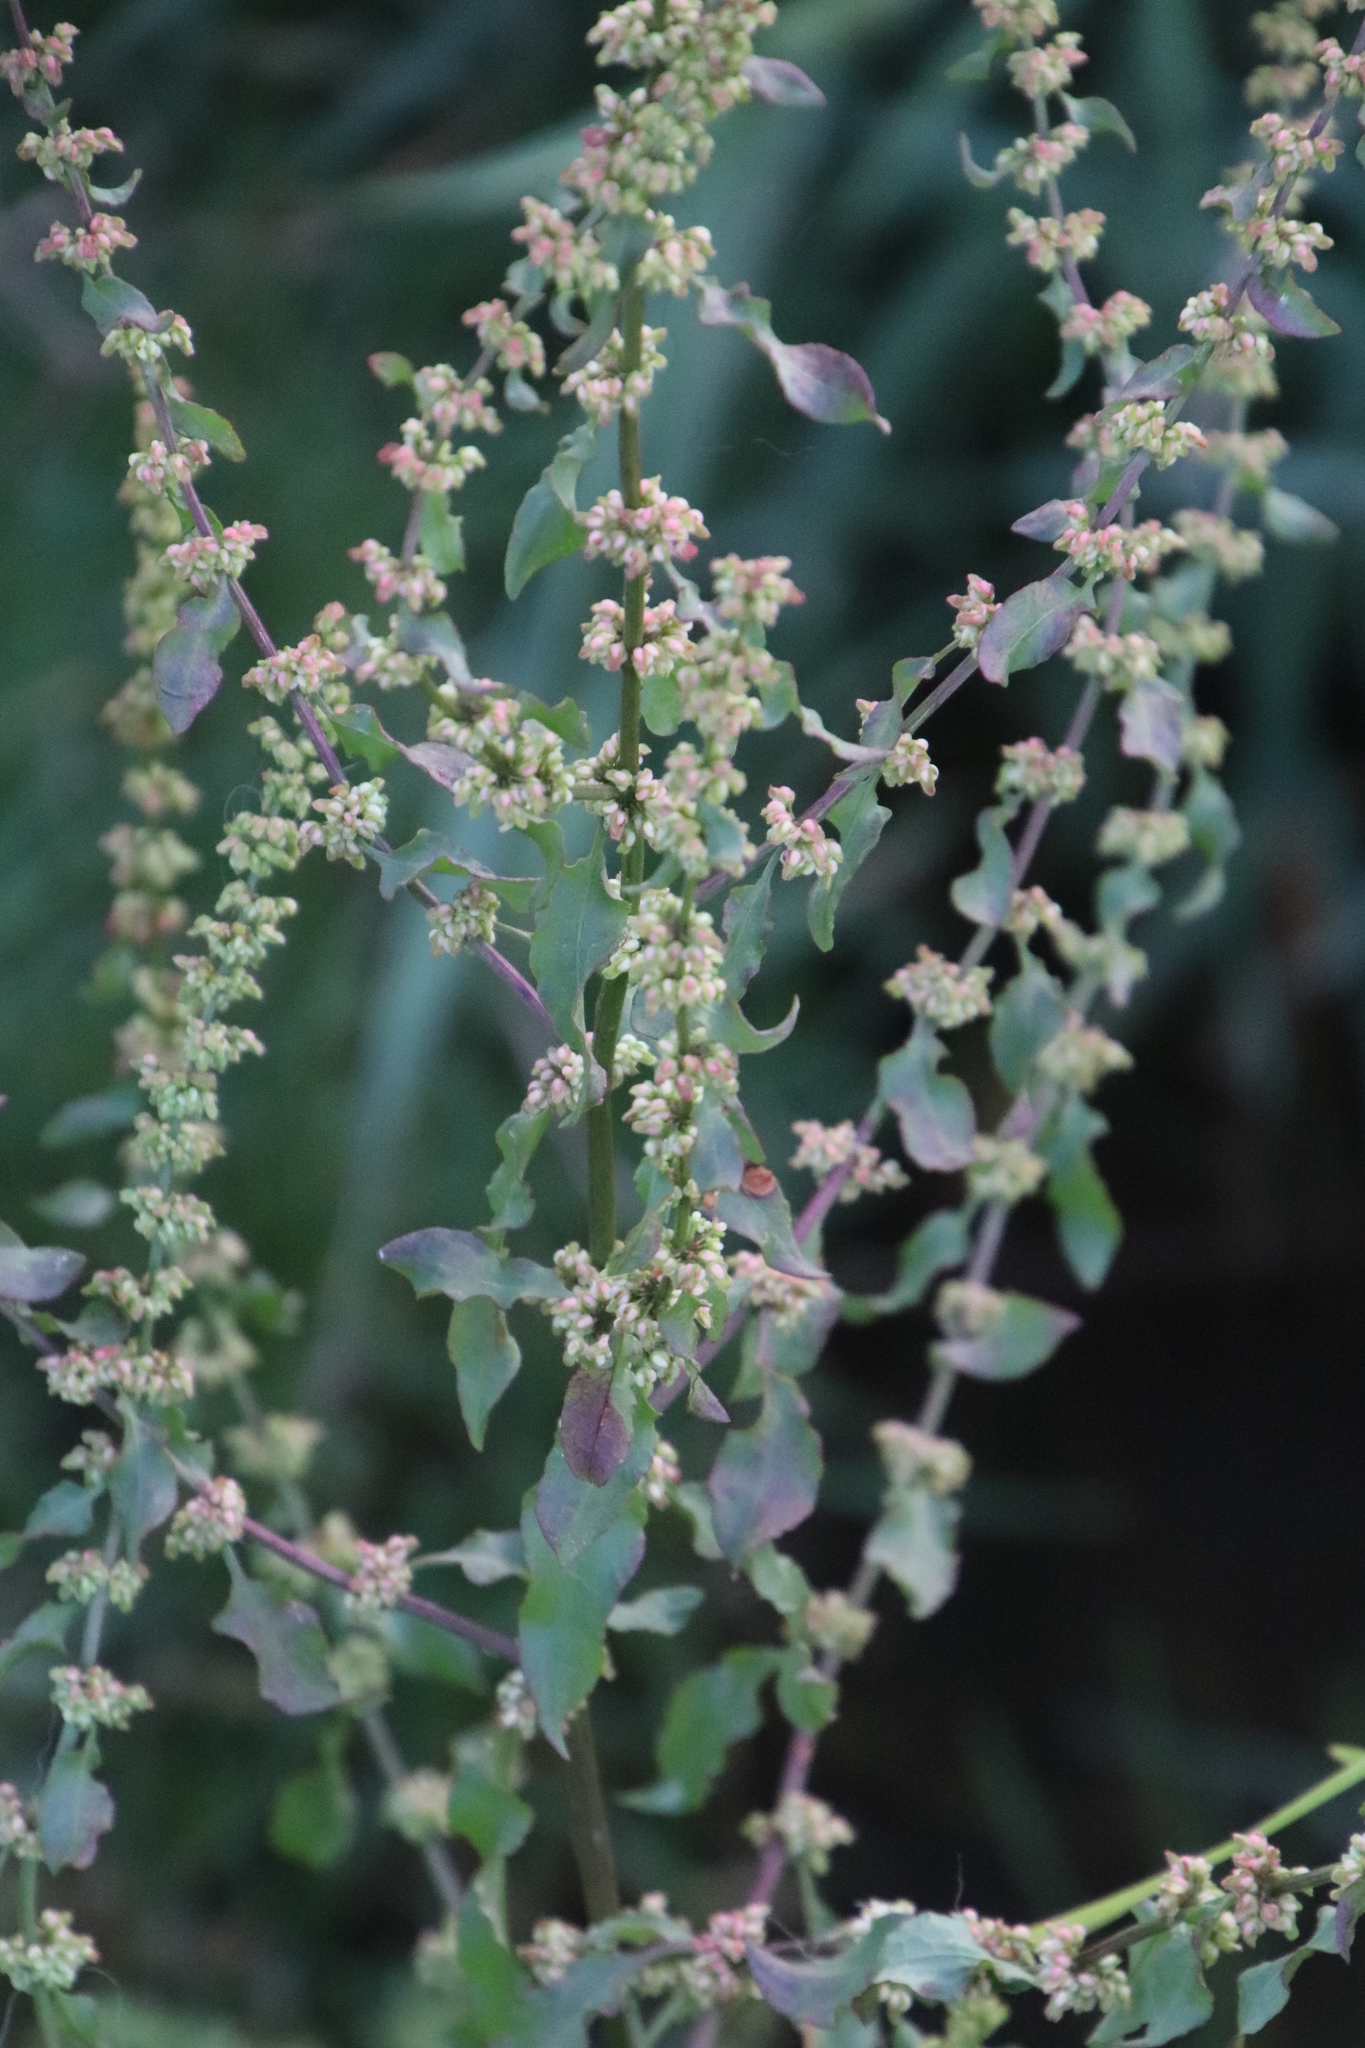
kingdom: Plantae
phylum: Tracheophyta
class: Magnoliopsida
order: Caryophyllales
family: Polygonaceae
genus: Rumex
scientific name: Rumex crispus
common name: Curled dock
